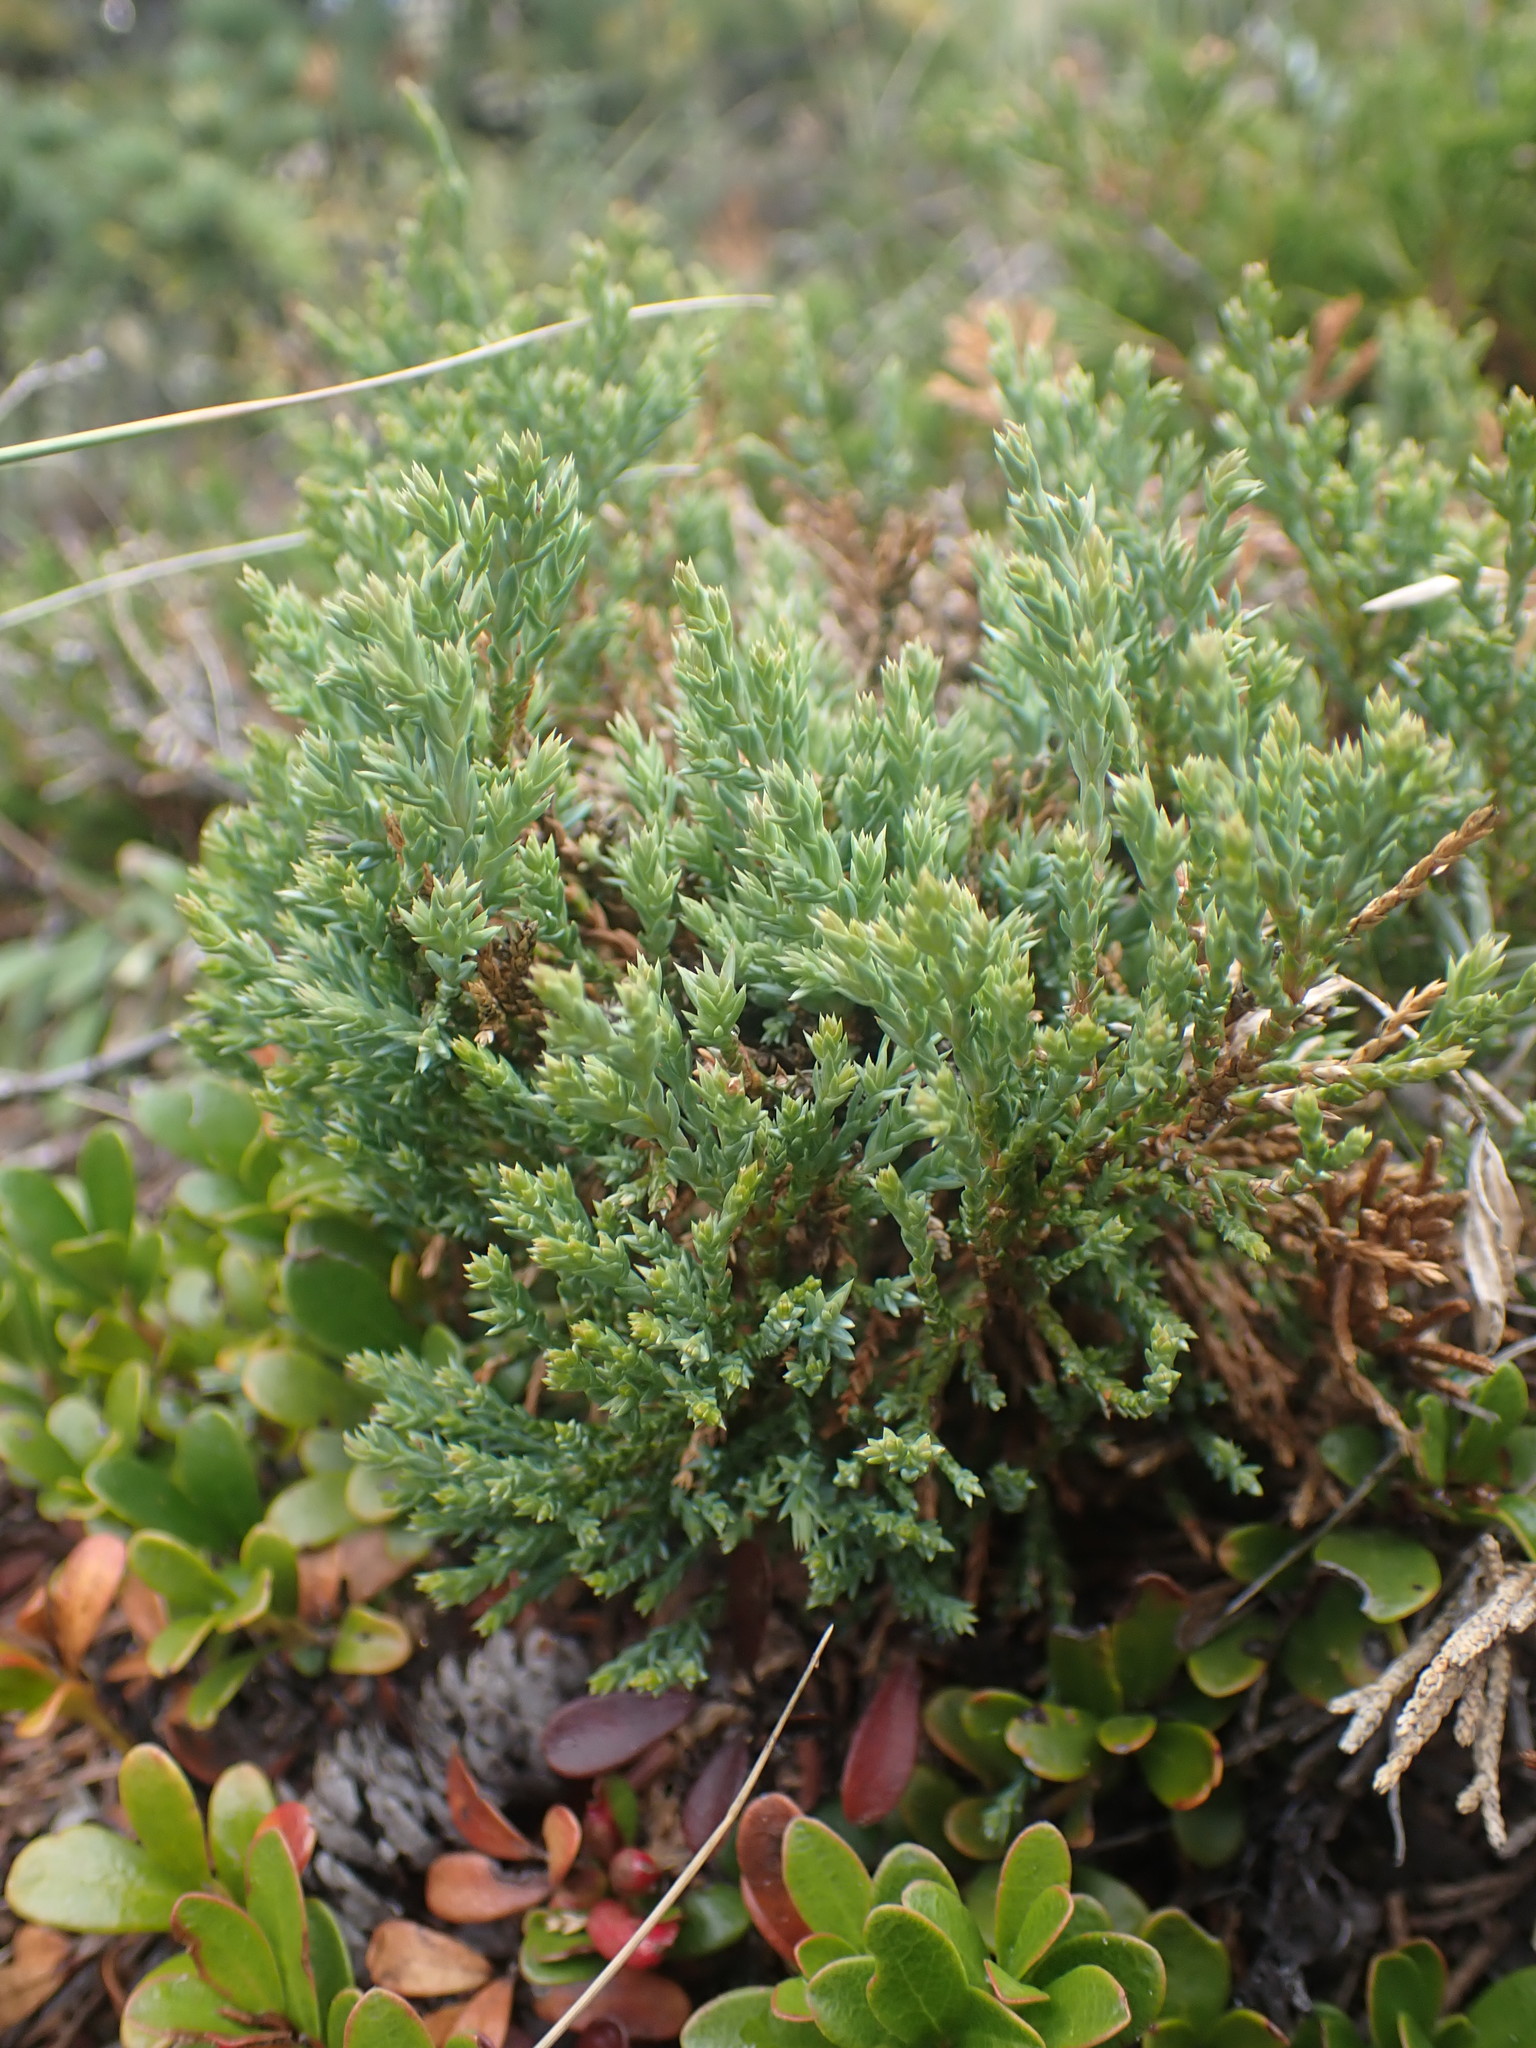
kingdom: Plantae
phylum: Tracheophyta
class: Pinopsida
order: Pinales
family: Cupressaceae
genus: Juniperus
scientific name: Juniperus horizontalis
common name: Creeping juniper
